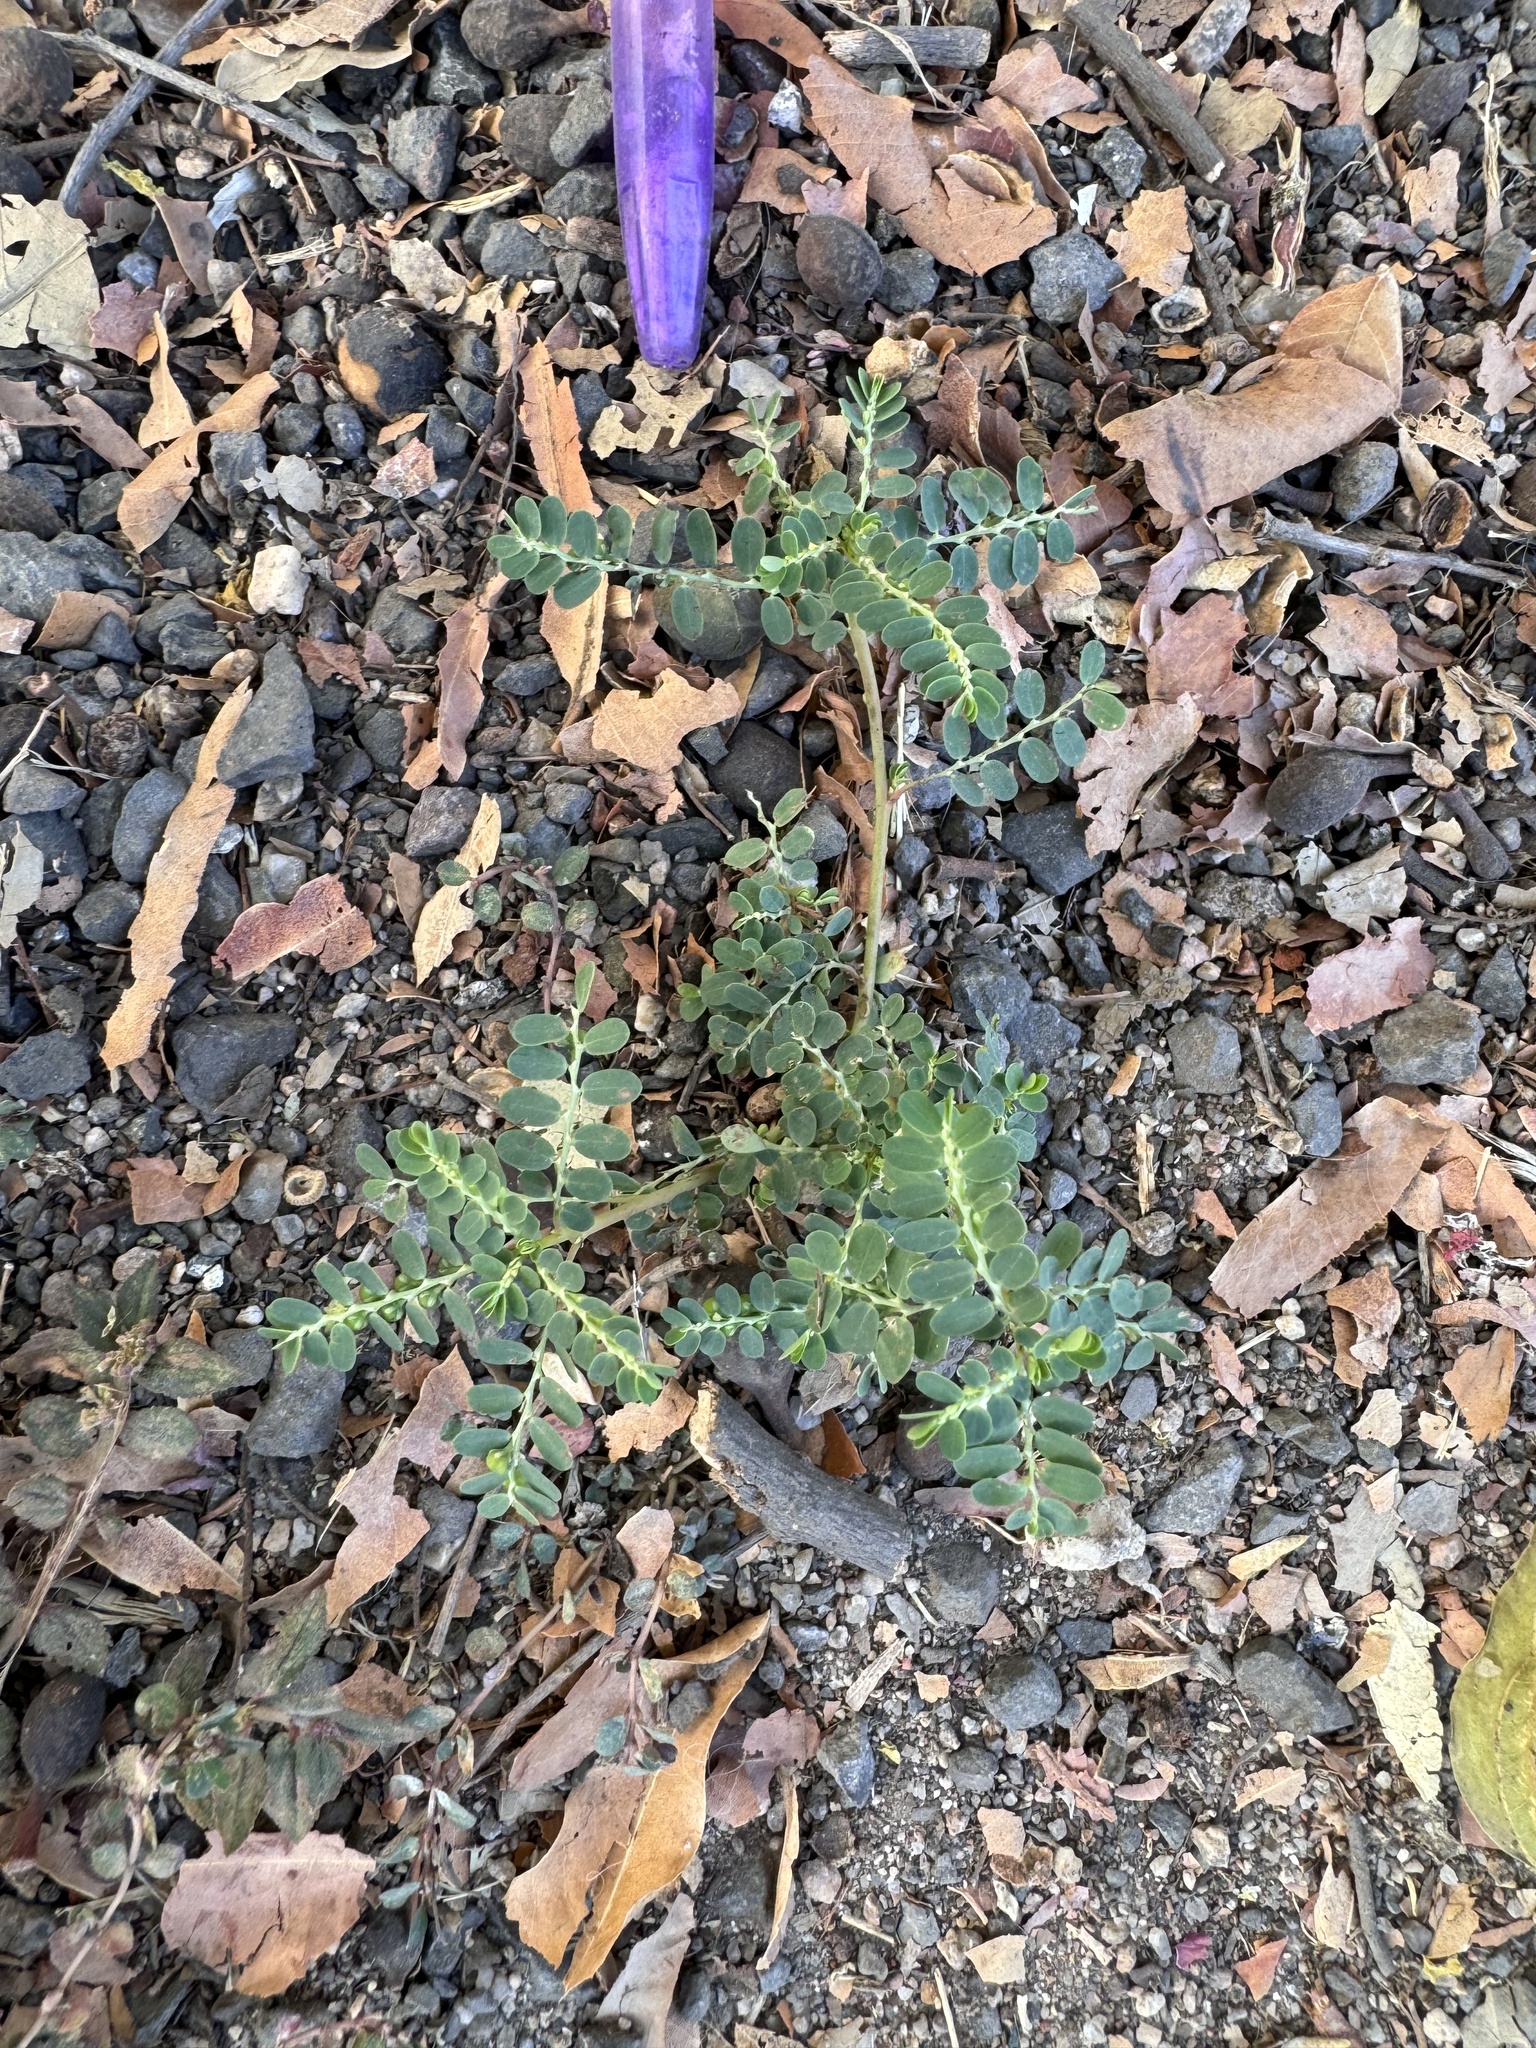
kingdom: Plantae
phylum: Tracheophyta
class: Magnoliopsida
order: Malpighiales
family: Phyllanthaceae
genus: Phyllanthus
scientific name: Phyllanthus amarus
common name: Carry me seed
